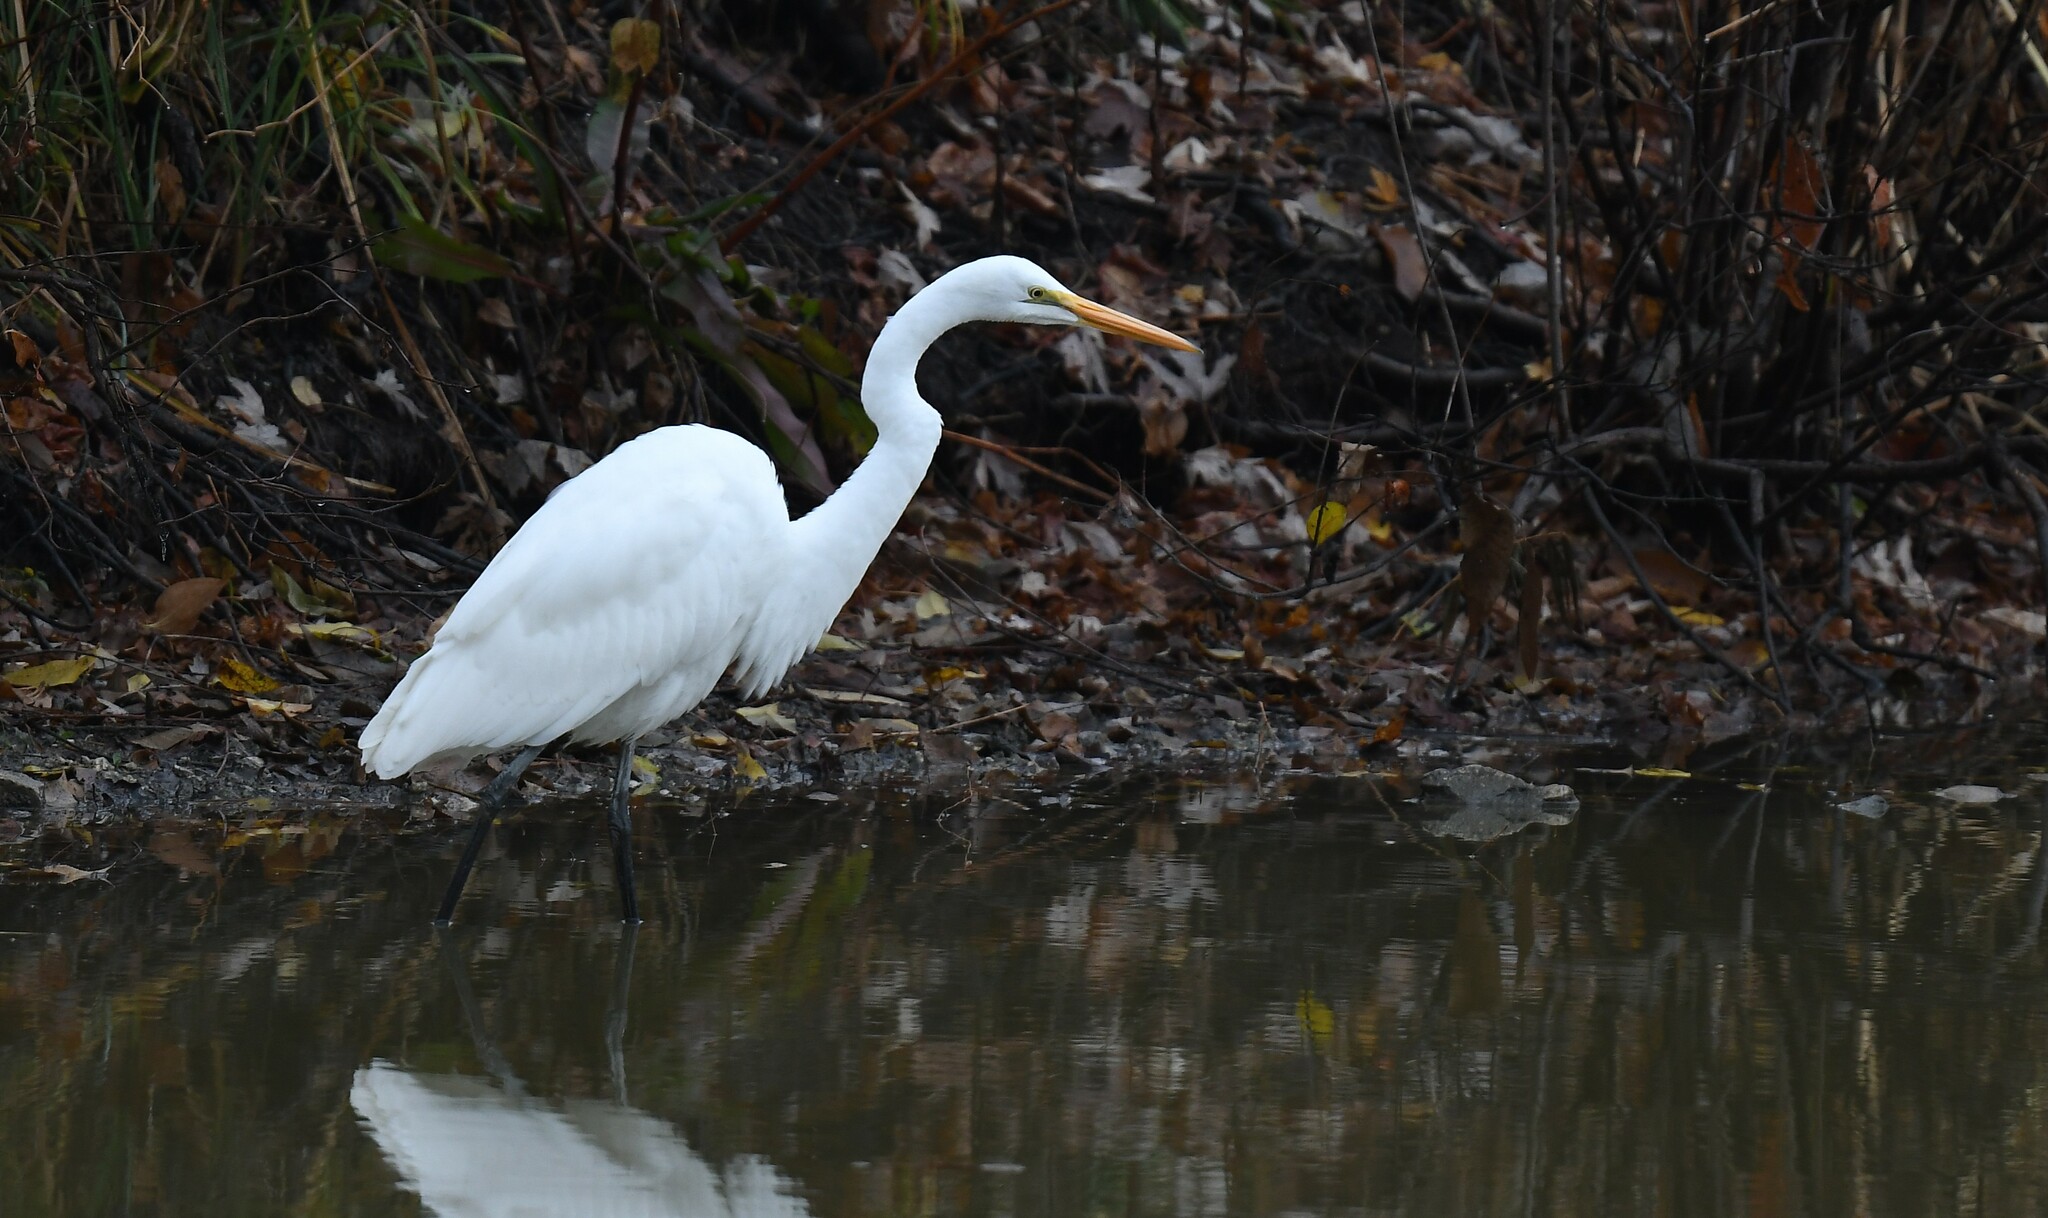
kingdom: Animalia
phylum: Chordata
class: Aves
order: Pelecaniformes
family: Ardeidae
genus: Ardea
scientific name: Ardea alba
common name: Great egret
